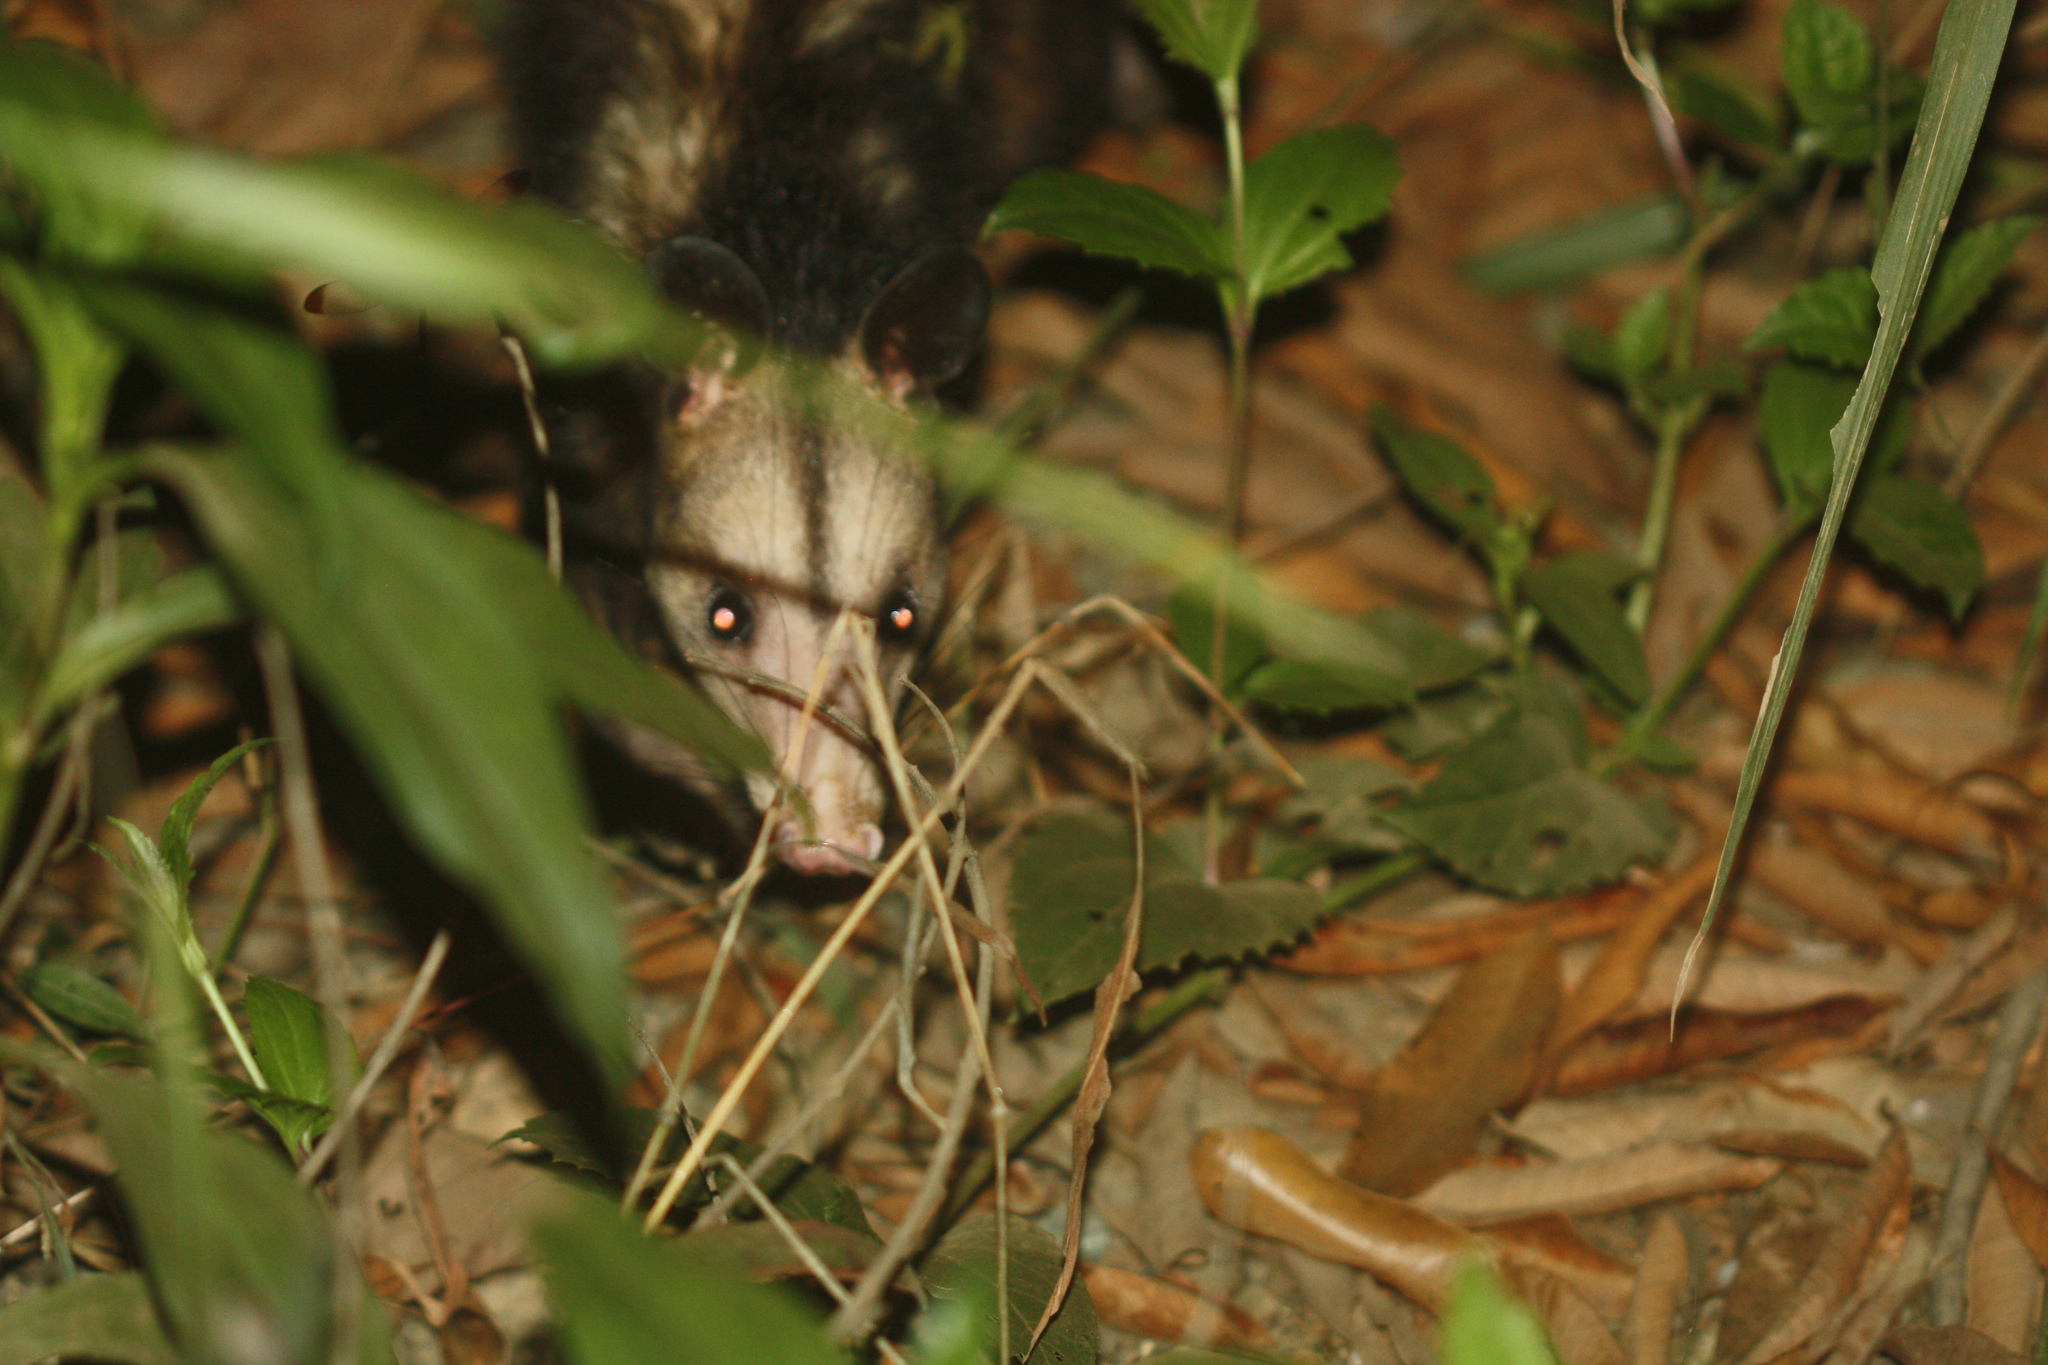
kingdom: Animalia
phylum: Chordata
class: Mammalia
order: Didelphimorphia
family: Didelphidae
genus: Didelphis
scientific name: Didelphis marsupialis
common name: Common opossum
